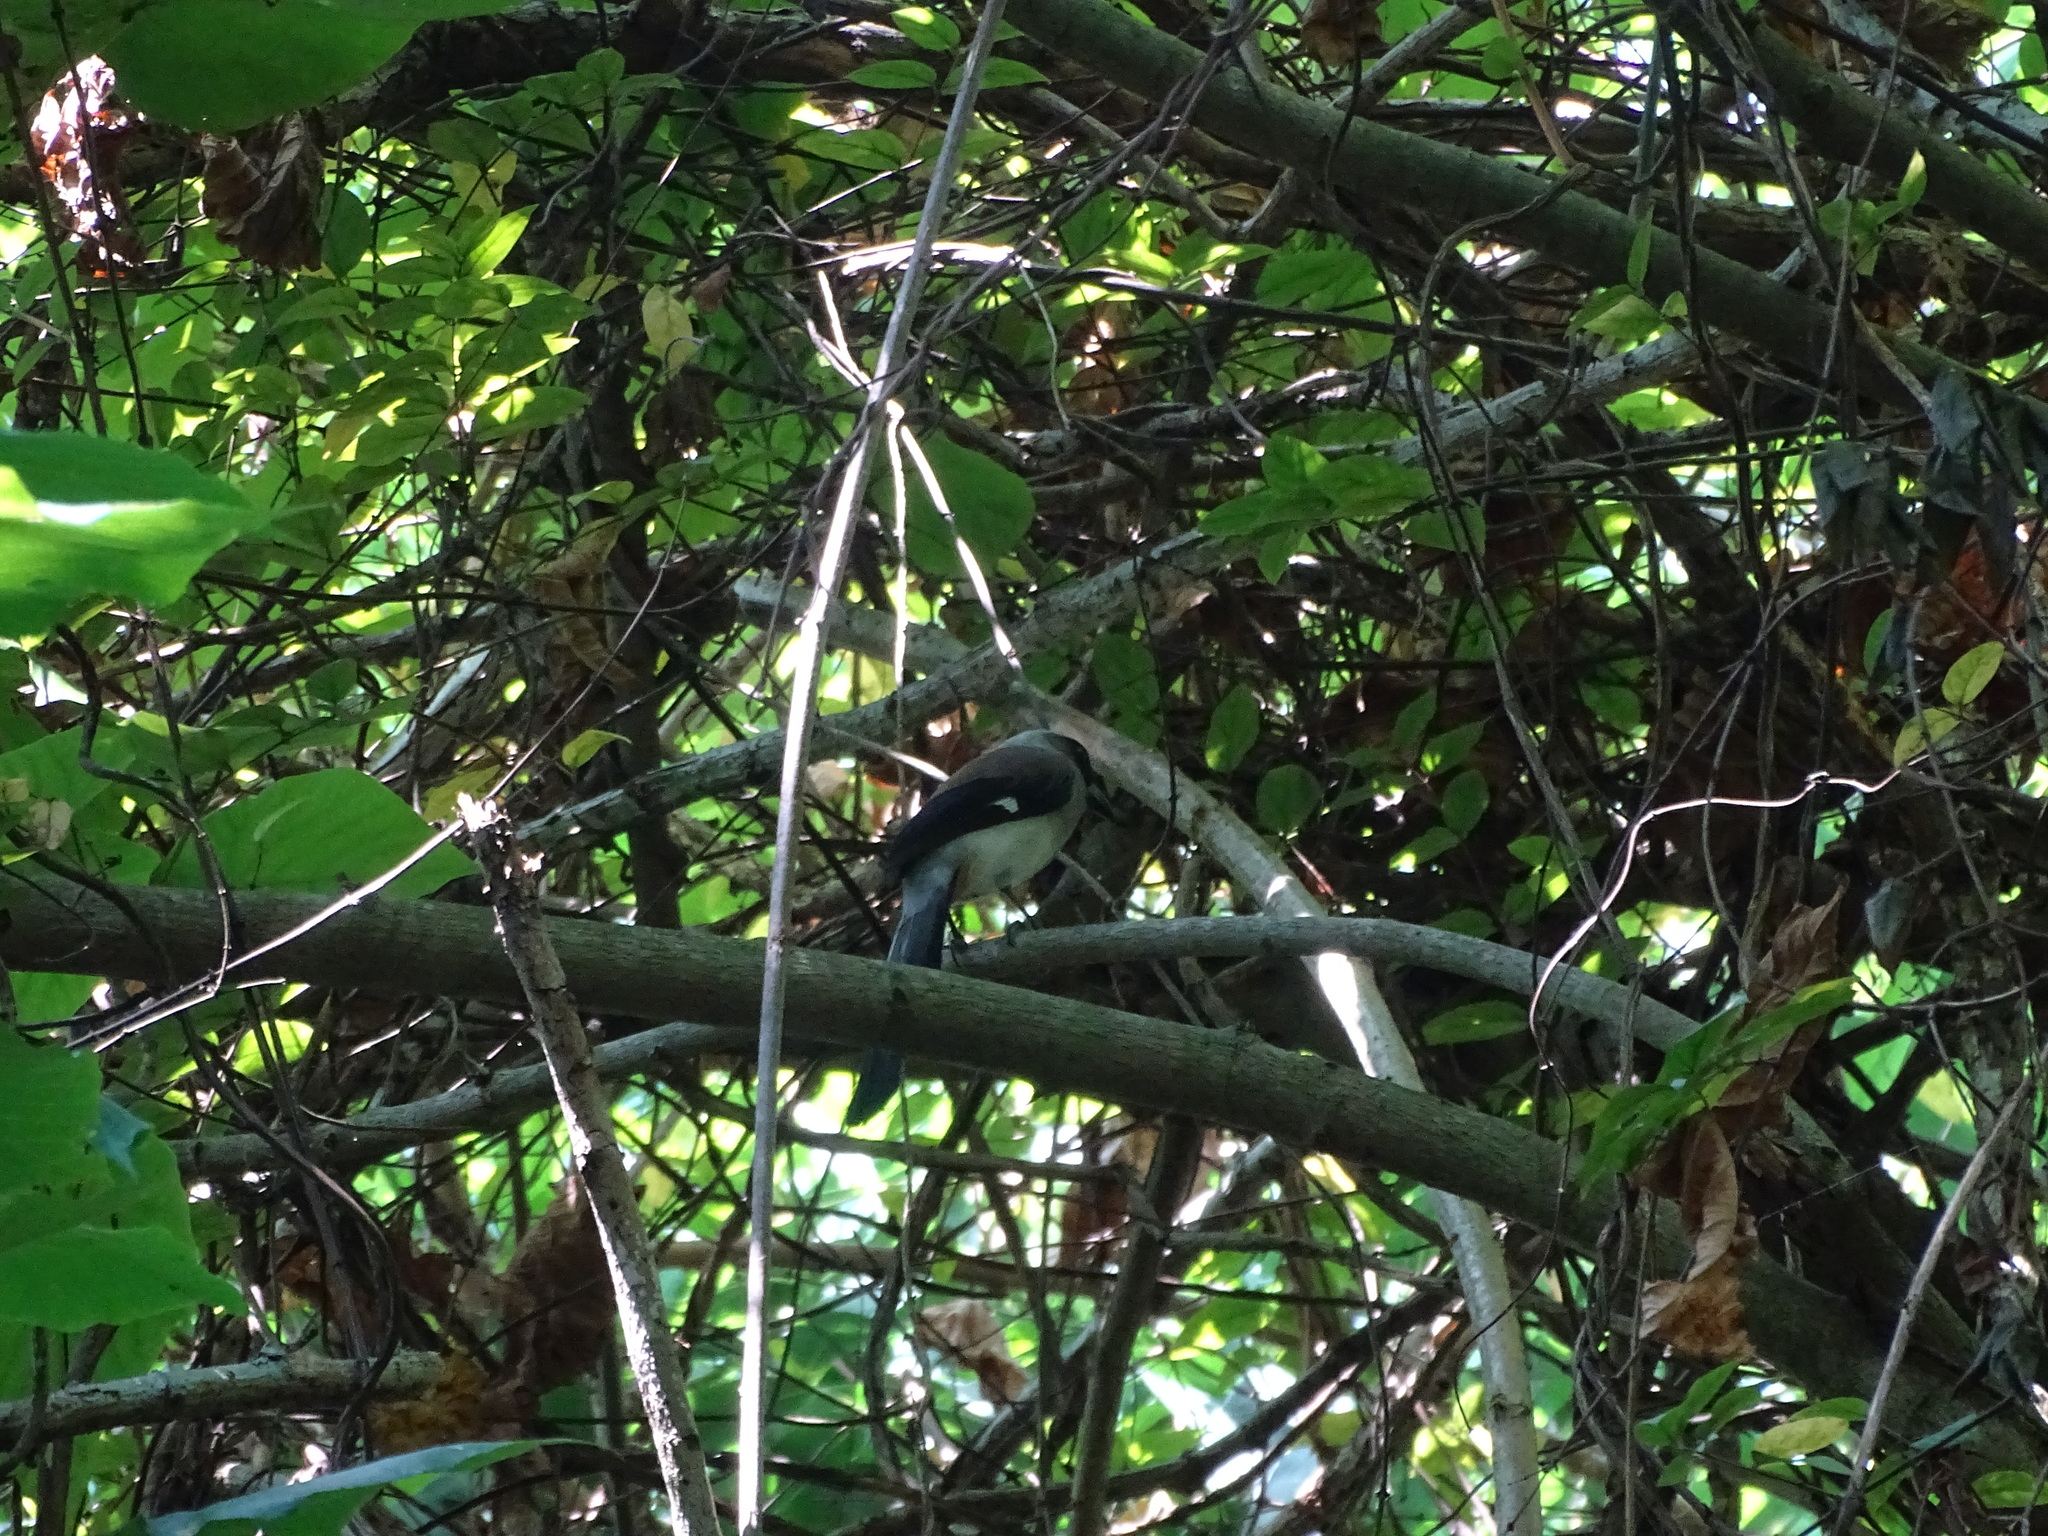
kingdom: Animalia
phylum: Chordata
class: Aves
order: Passeriformes
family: Corvidae
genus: Dendrocitta
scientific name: Dendrocitta formosae
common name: Grey treepie
